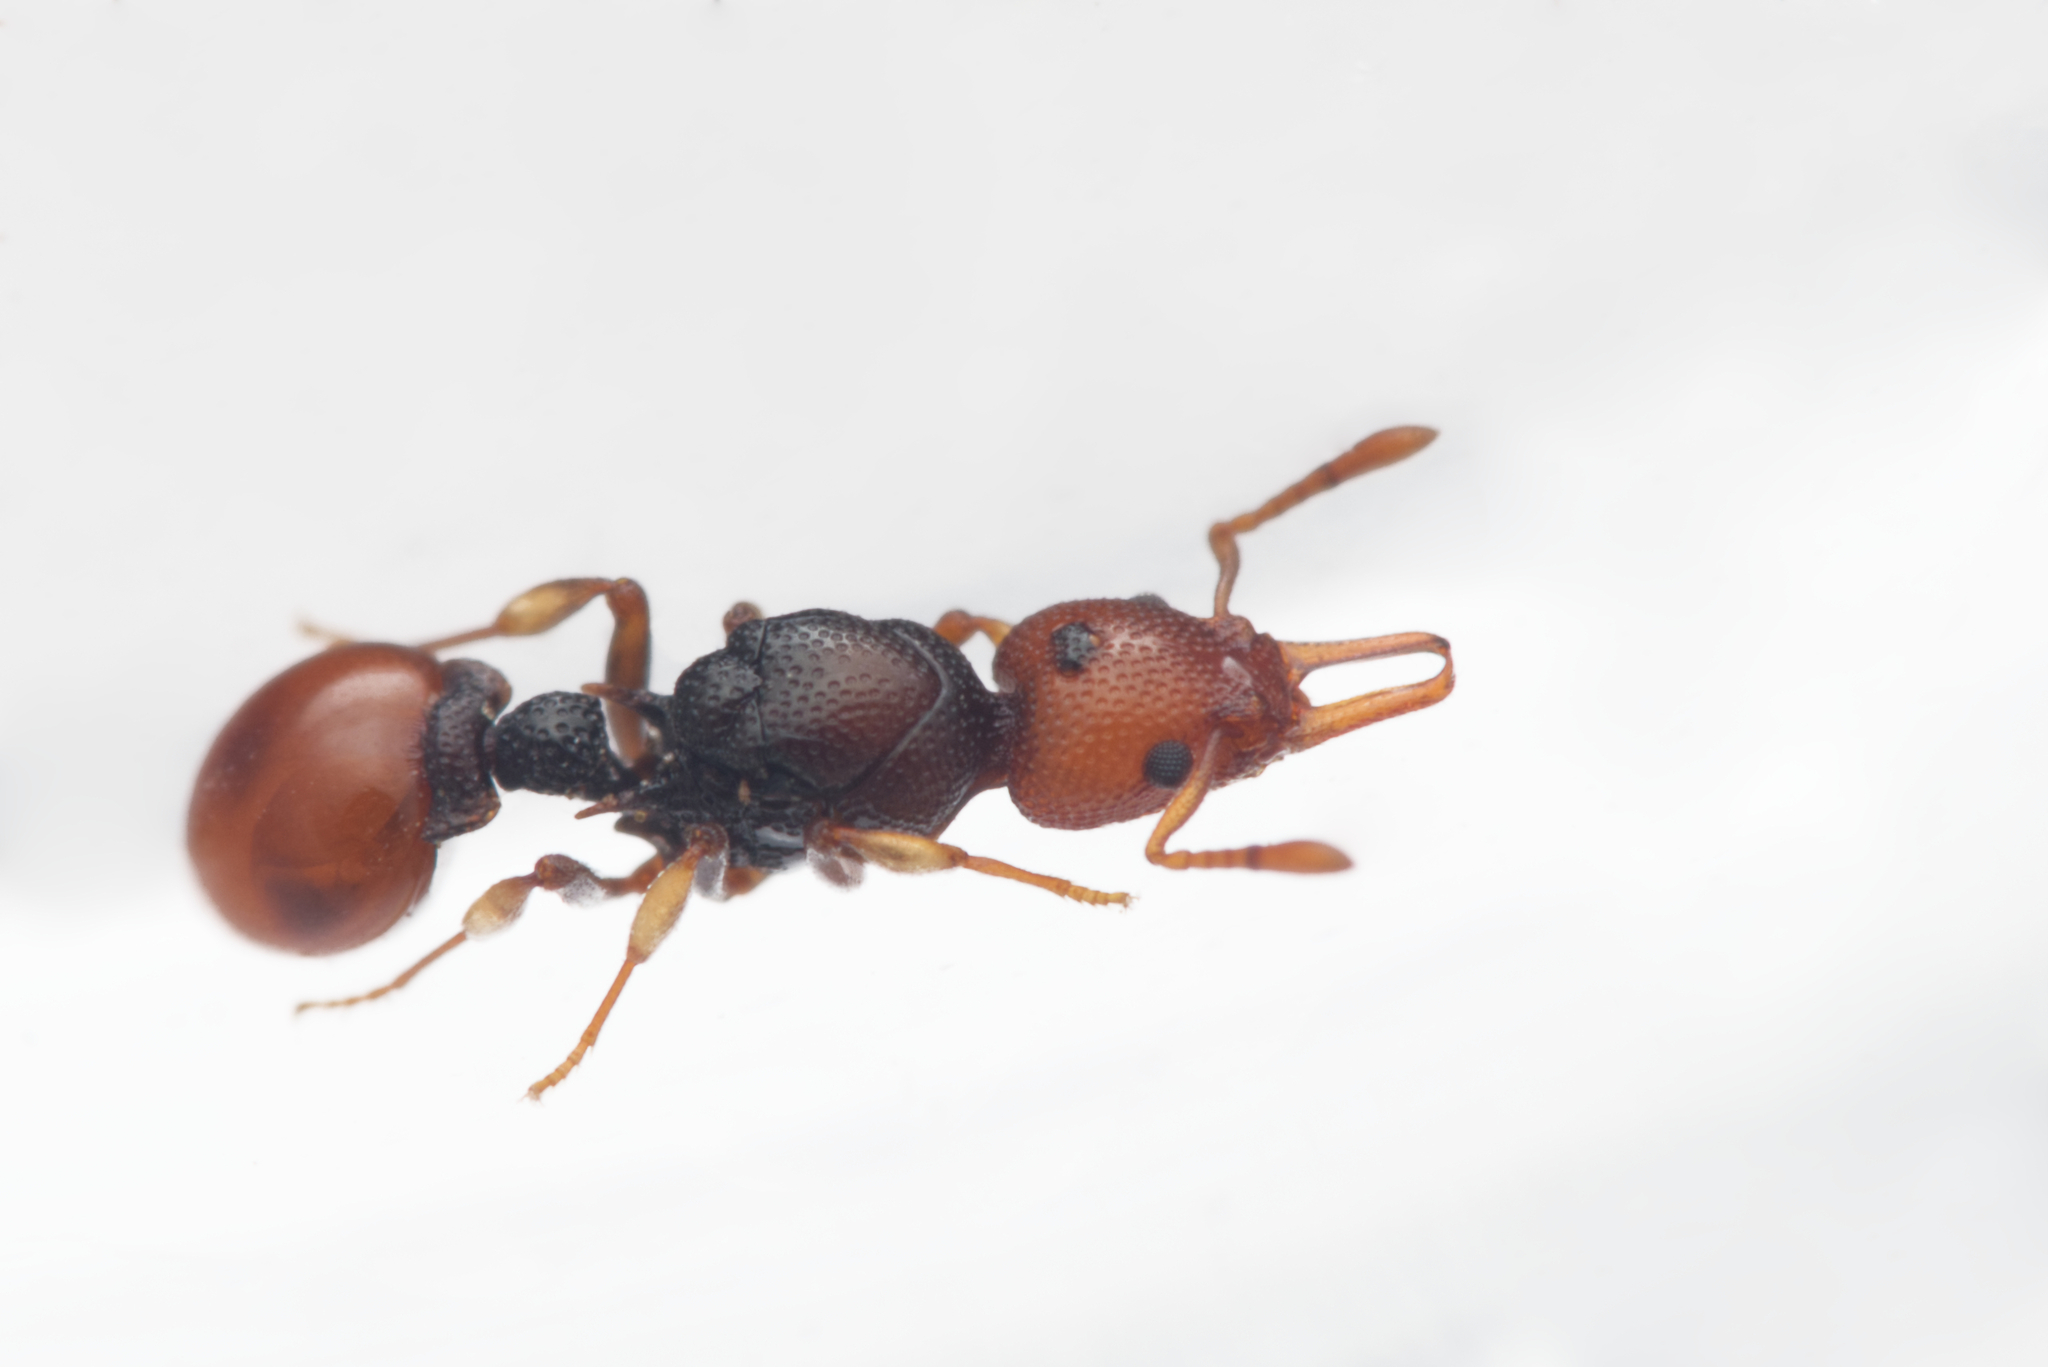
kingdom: Animalia
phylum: Arthropoda
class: Insecta
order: Hymenoptera
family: Formicidae
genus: Epopostruma
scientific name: Epopostruma
